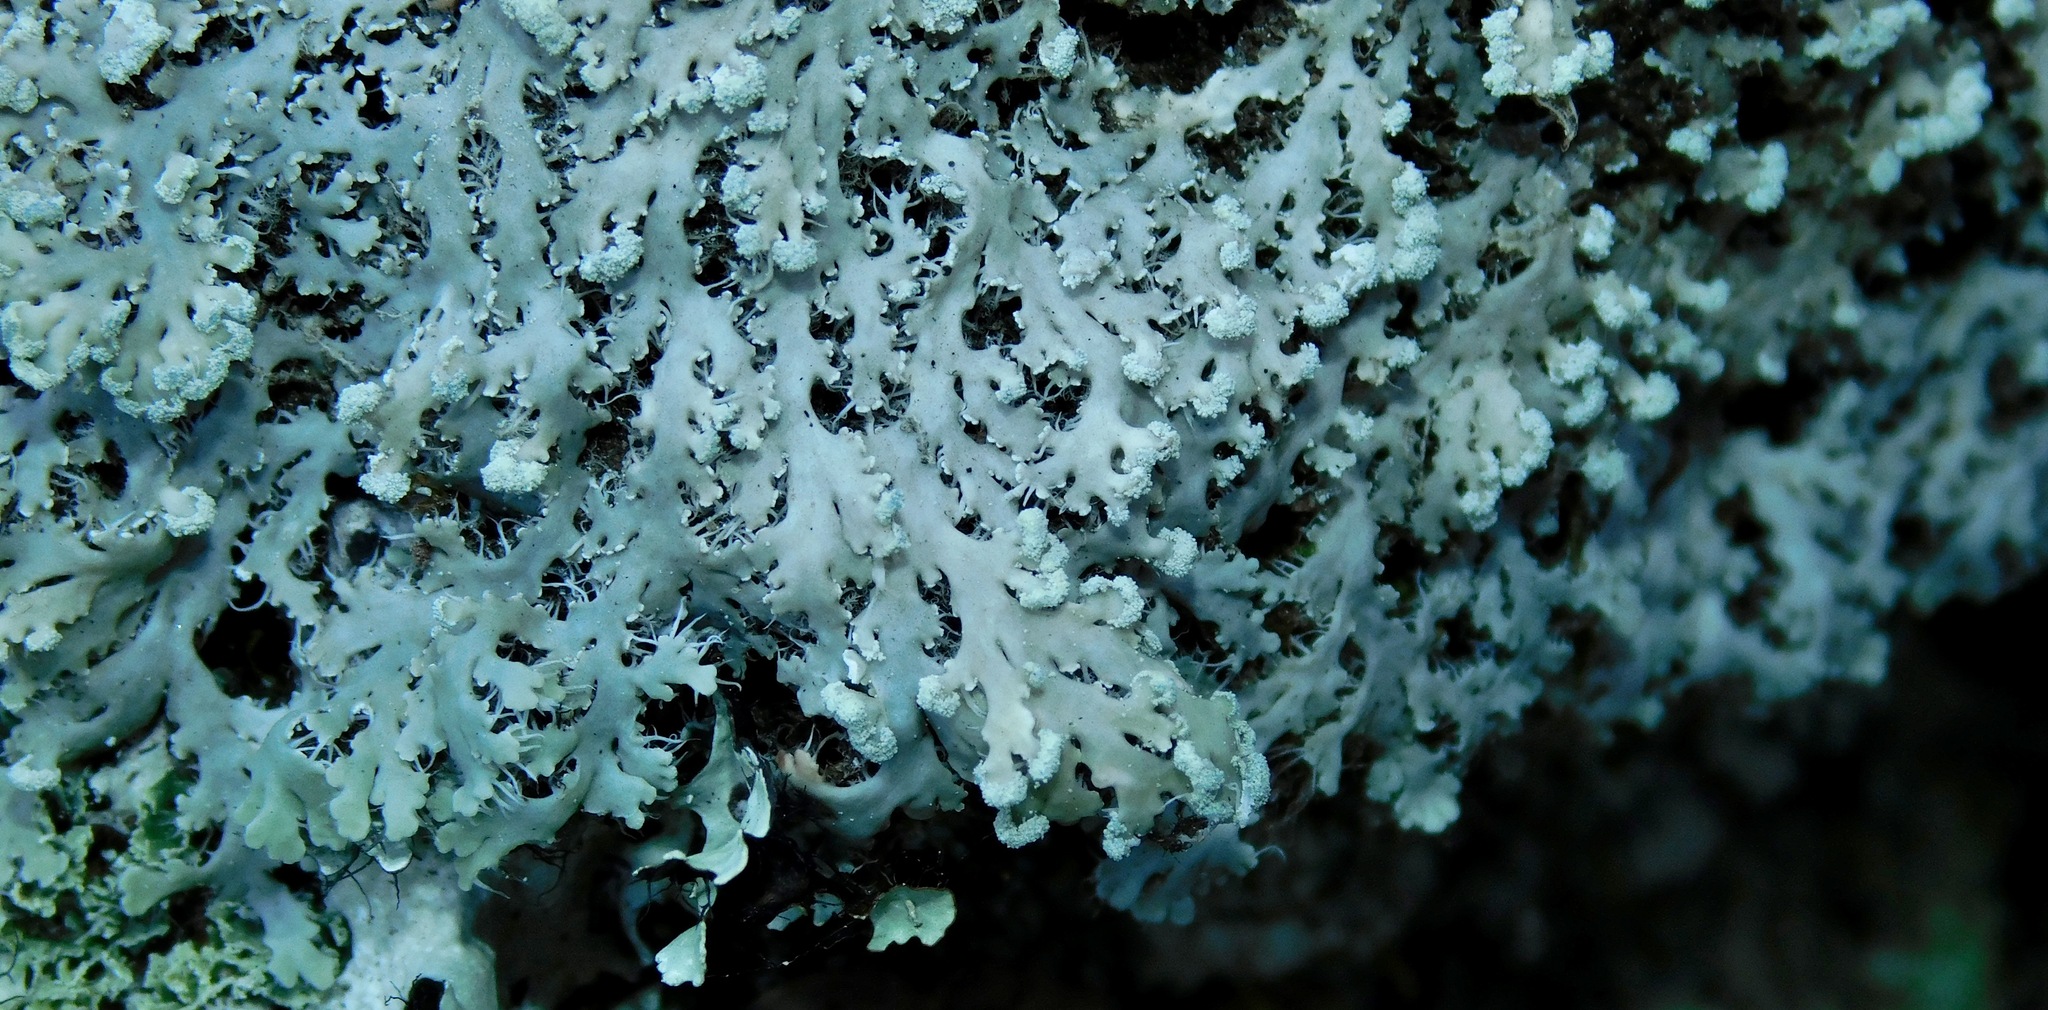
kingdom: Fungi
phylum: Ascomycota
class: Lecanoromycetes
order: Caliciales
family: Physciaceae
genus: Heterodermia
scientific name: Heterodermia speciosa
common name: Powdered fringe lichen
